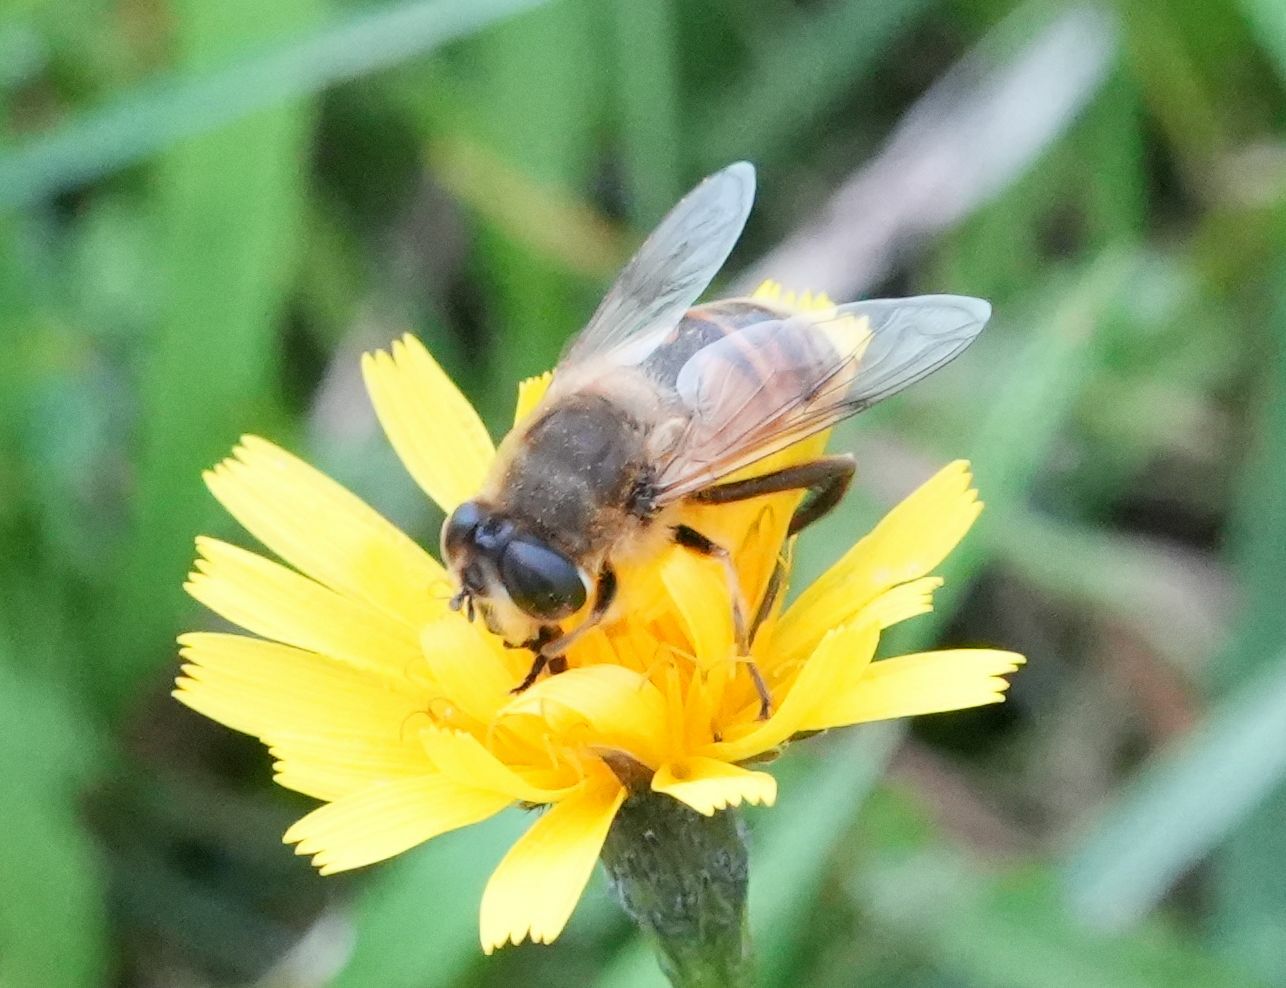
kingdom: Animalia
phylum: Arthropoda
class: Insecta
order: Diptera
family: Syrphidae
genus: Eristalis
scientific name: Eristalis tenax
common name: Drone fly
